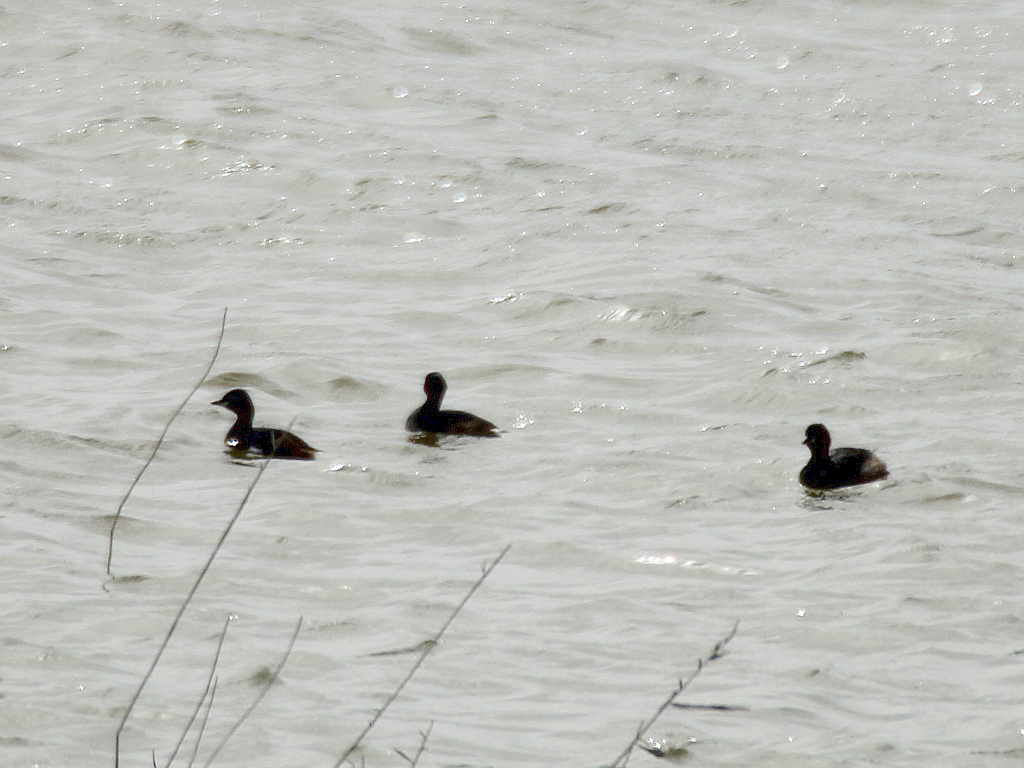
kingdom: Animalia
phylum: Chordata
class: Aves
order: Podicipediformes
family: Podicipedidae
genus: Tachybaptus
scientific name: Tachybaptus ruficollis
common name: Little grebe
